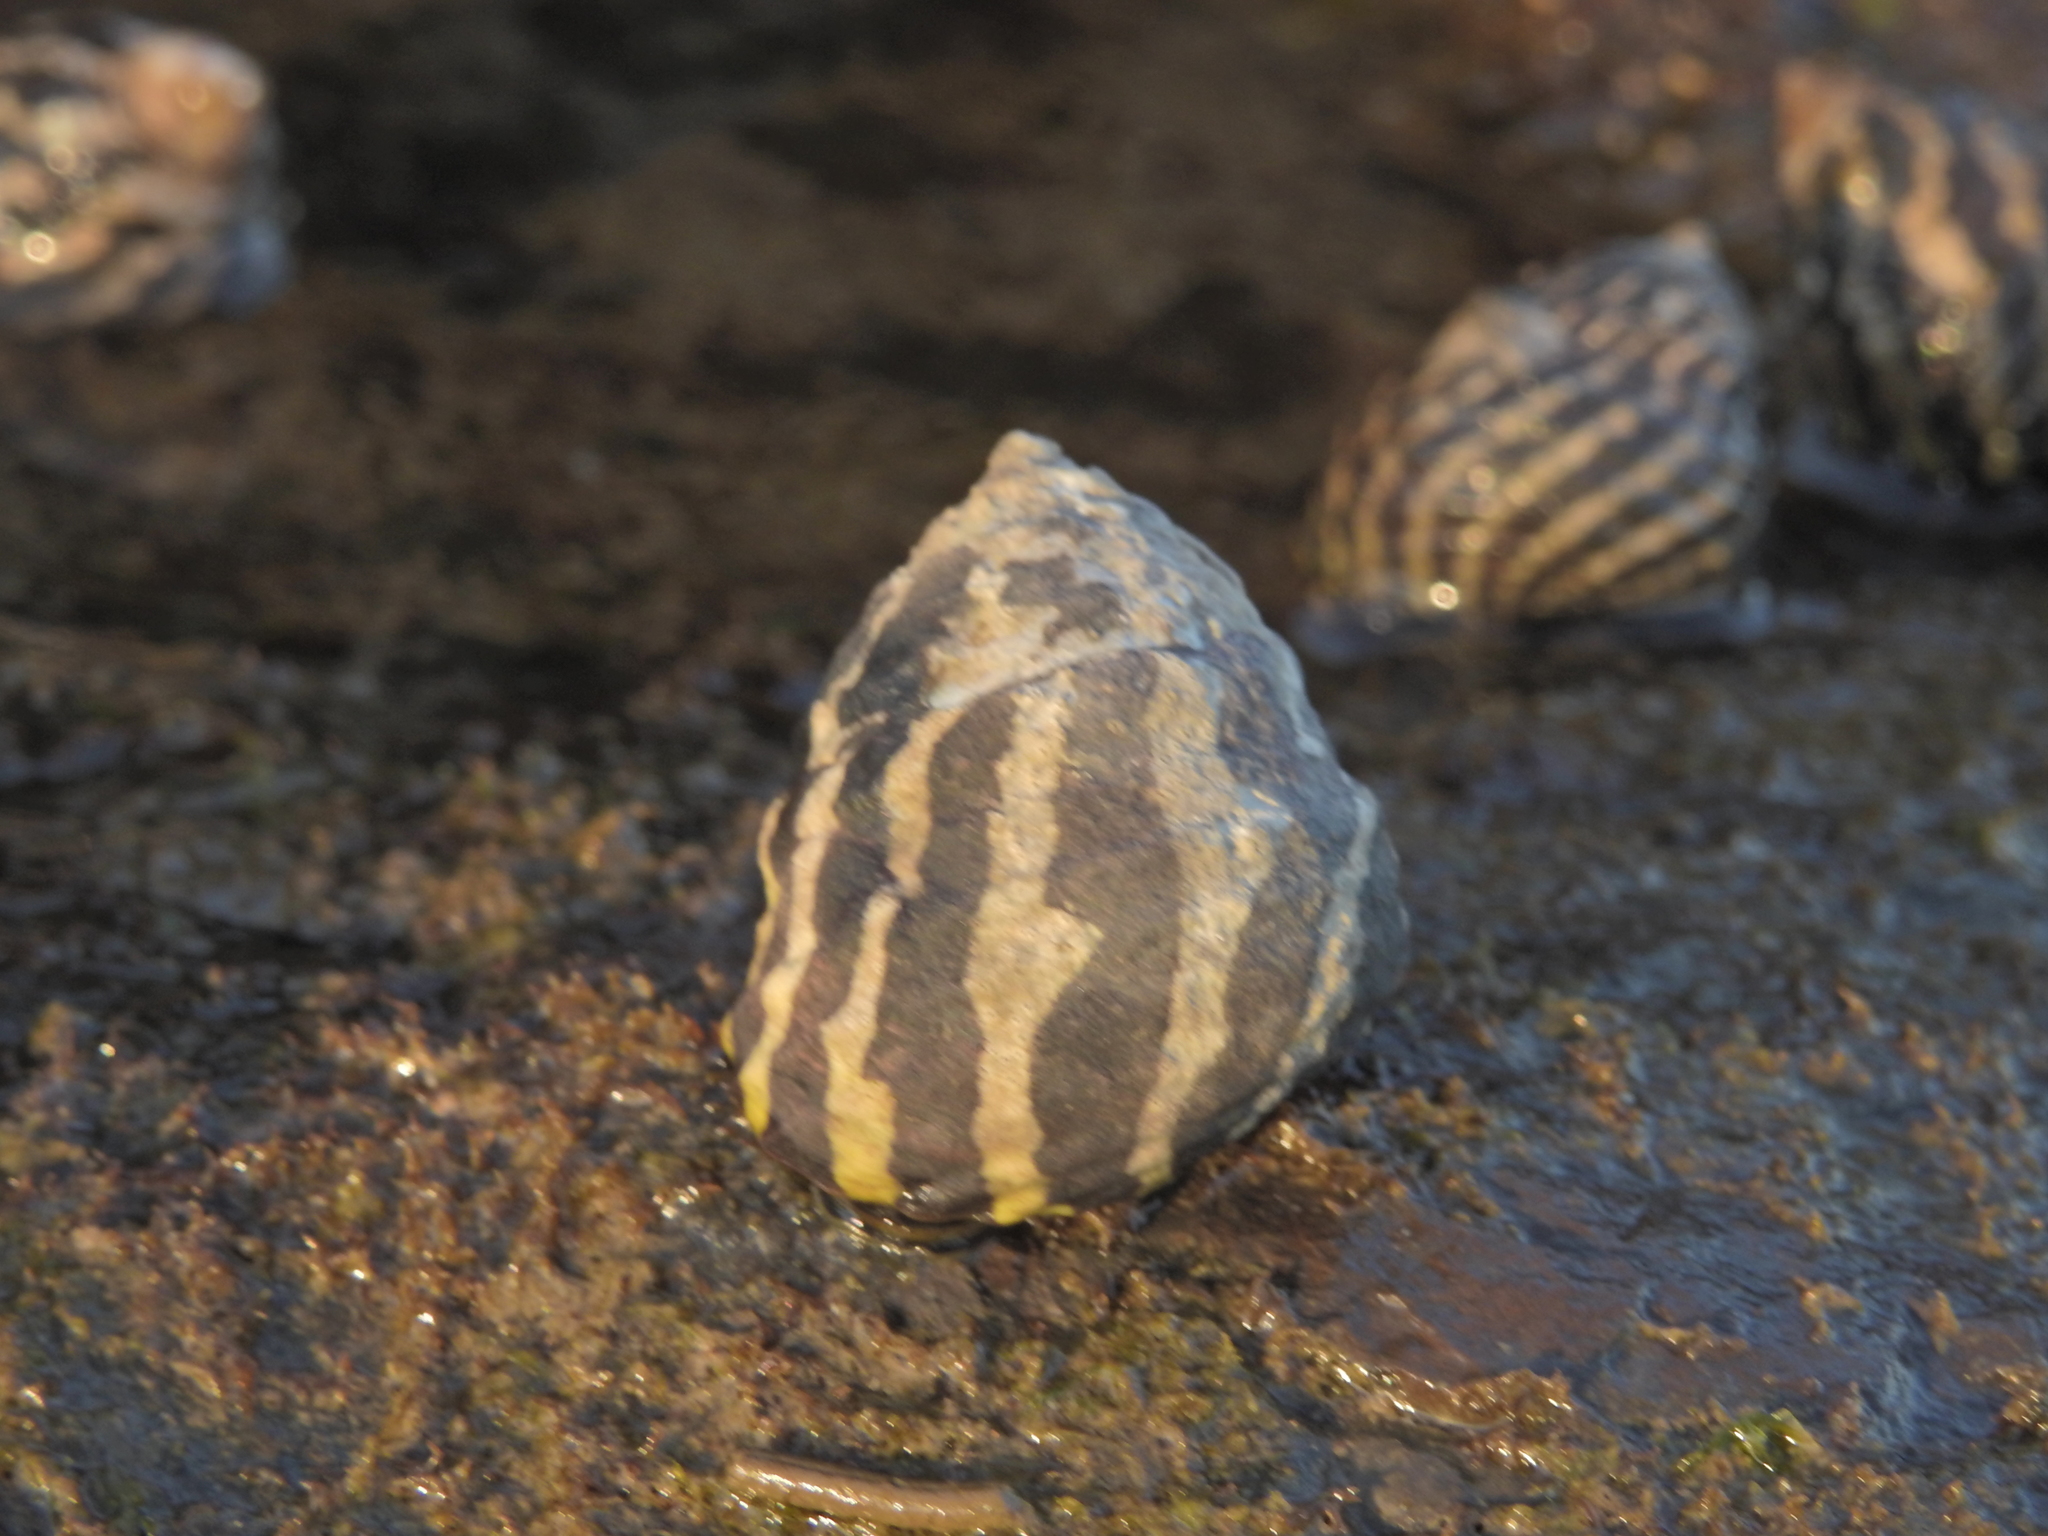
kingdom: Animalia
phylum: Mollusca
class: Gastropoda
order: Trochida
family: Trochidae
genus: Austrocochlea
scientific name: Austrocochlea porcata
